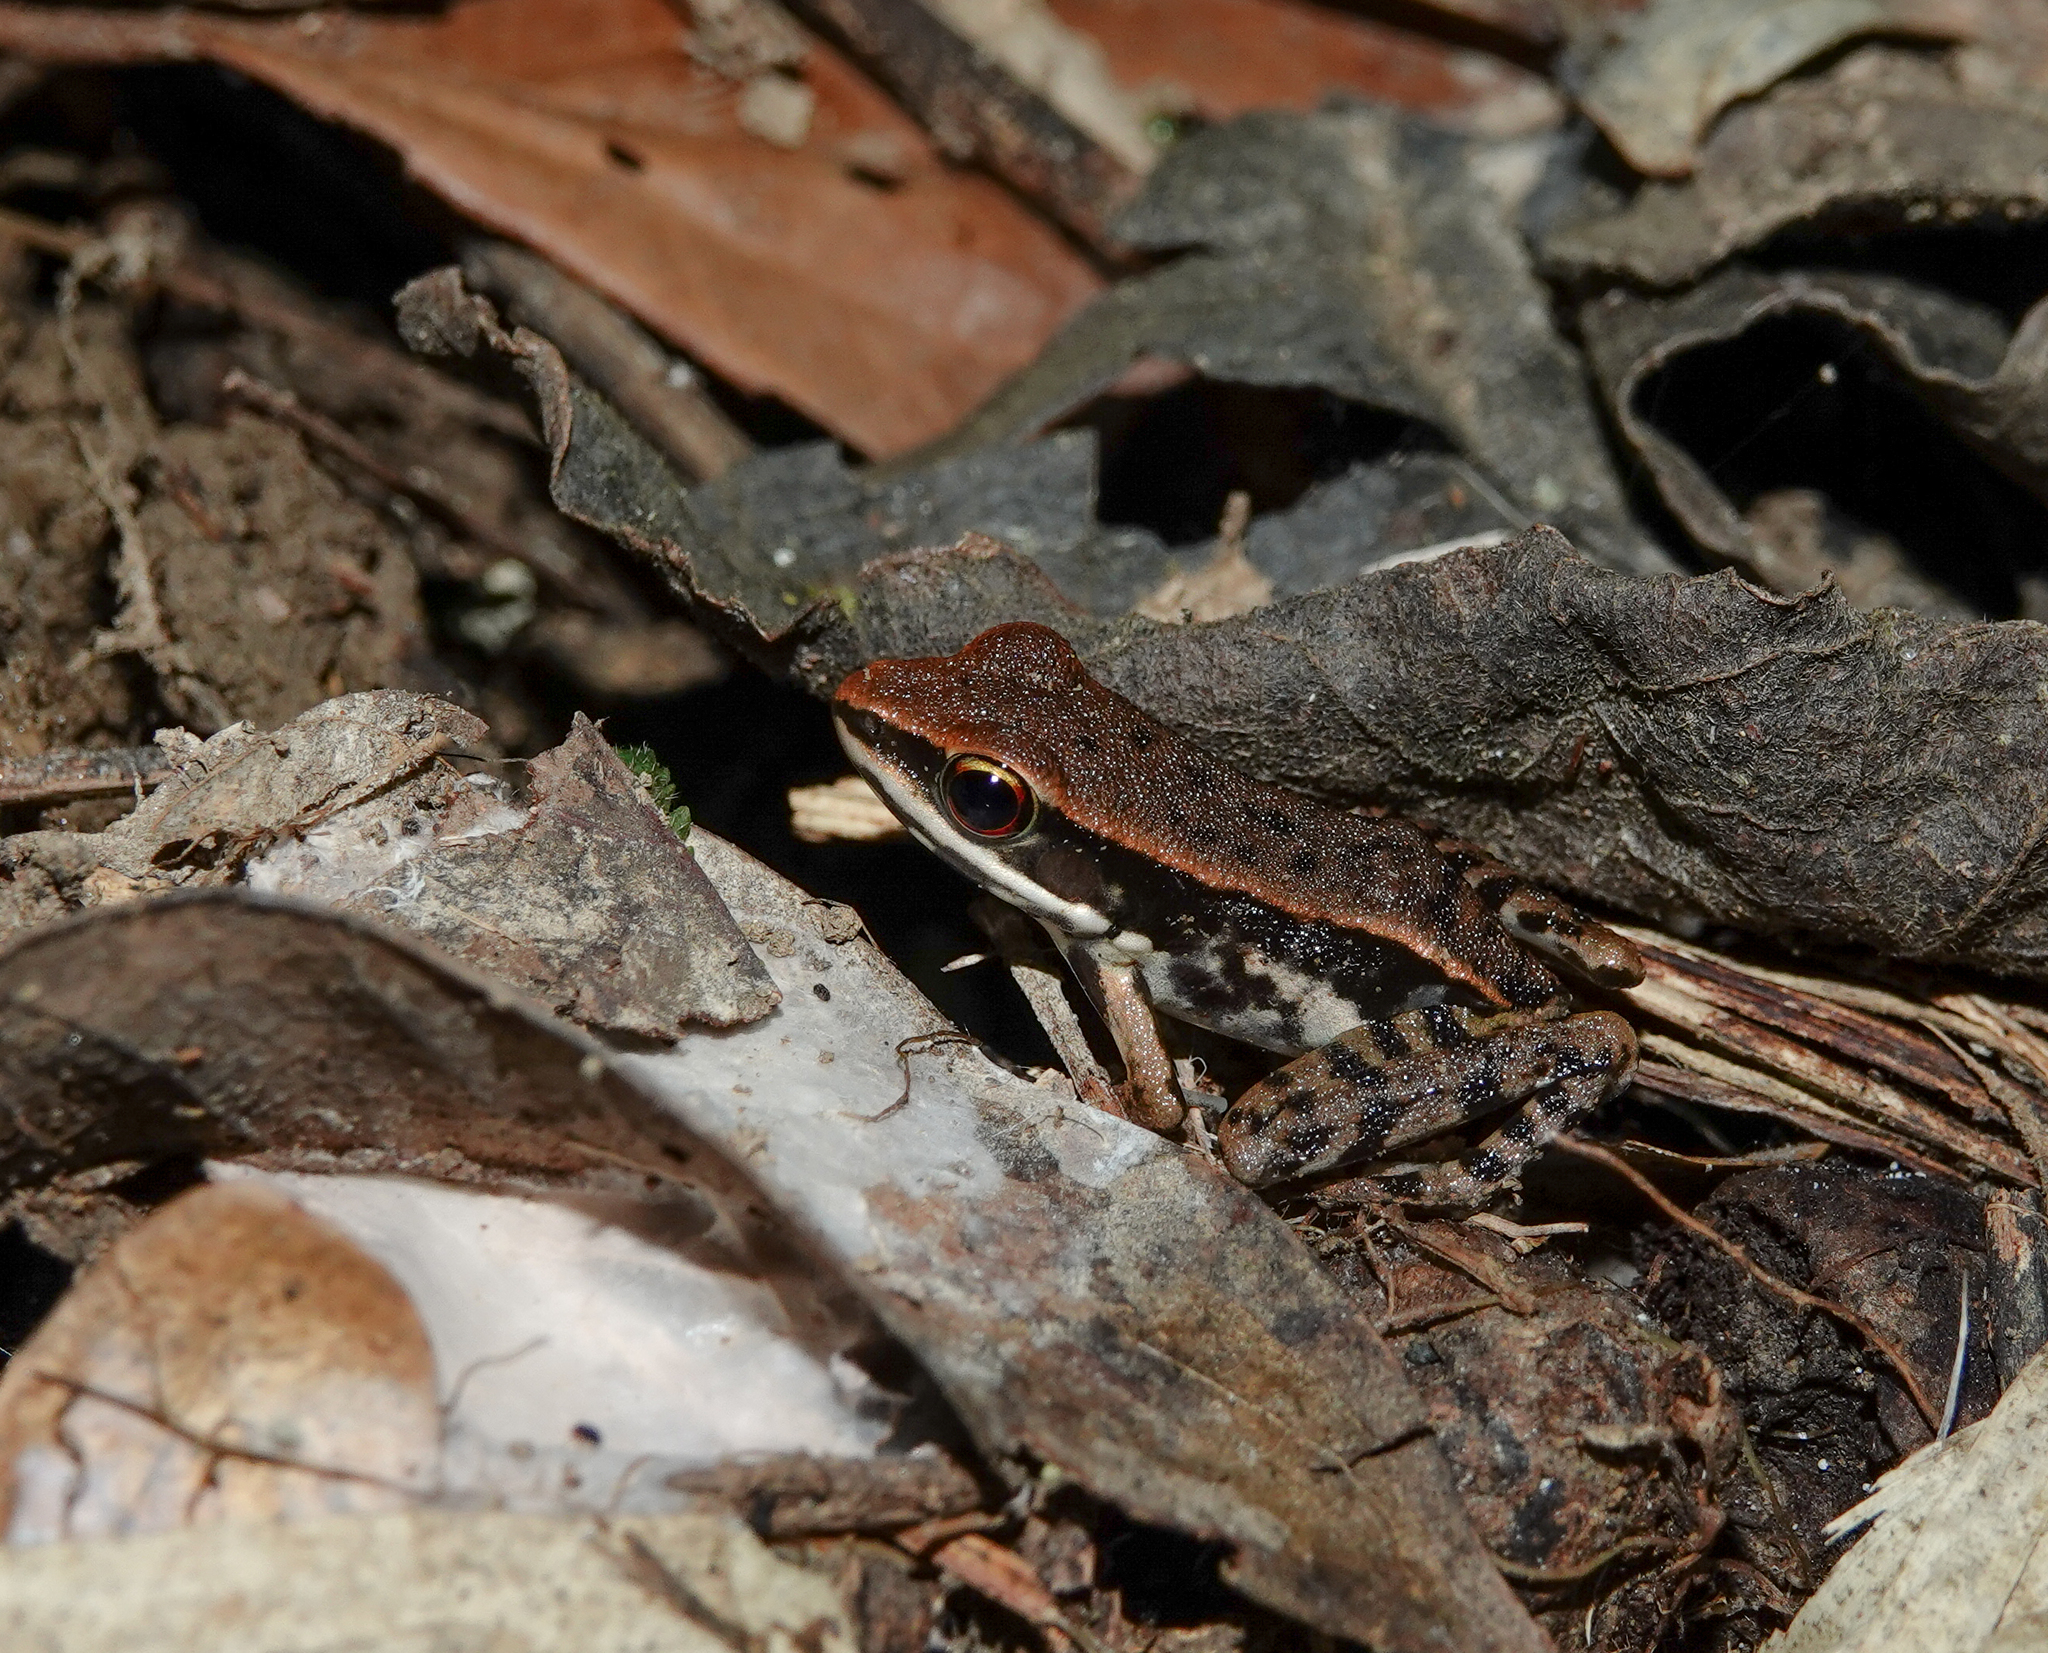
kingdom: Animalia
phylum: Chordata
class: Amphibia
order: Anura
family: Ranidae
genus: Hydrophylax
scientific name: Hydrophylax leptoglossa
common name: Cope's assam frog
